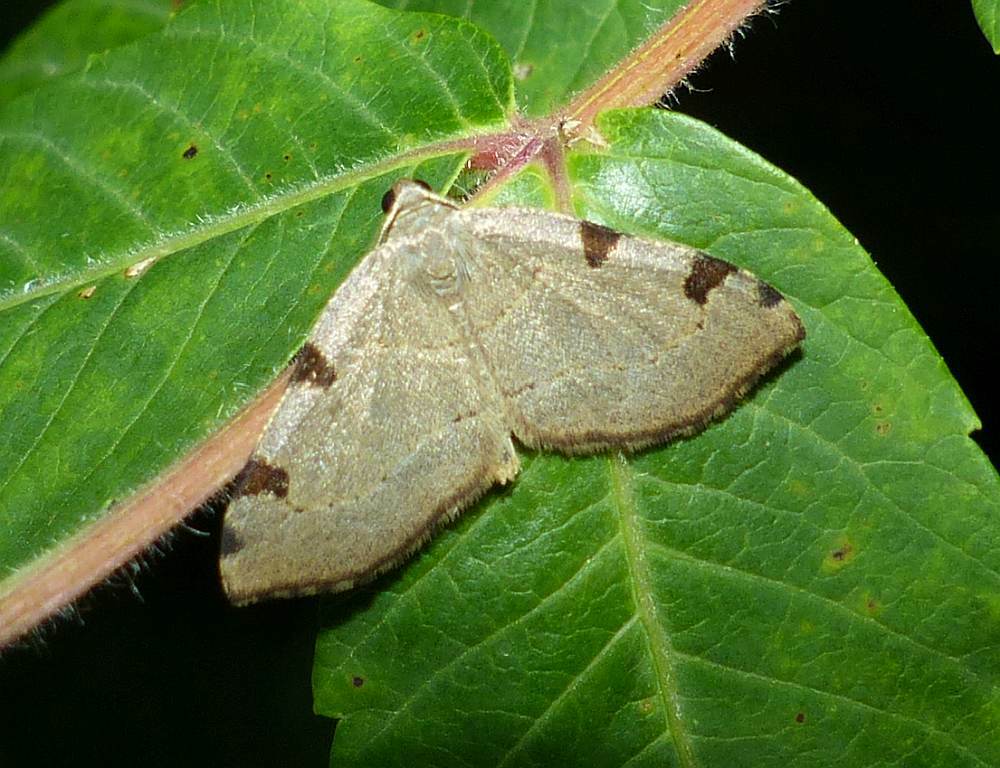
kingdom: Animalia
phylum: Arthropoda
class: Insecta
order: Lepidoptera
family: Geometridae
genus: Heterophleps
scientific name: Heterophleps triguttaria
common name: Three-spotted fillip
